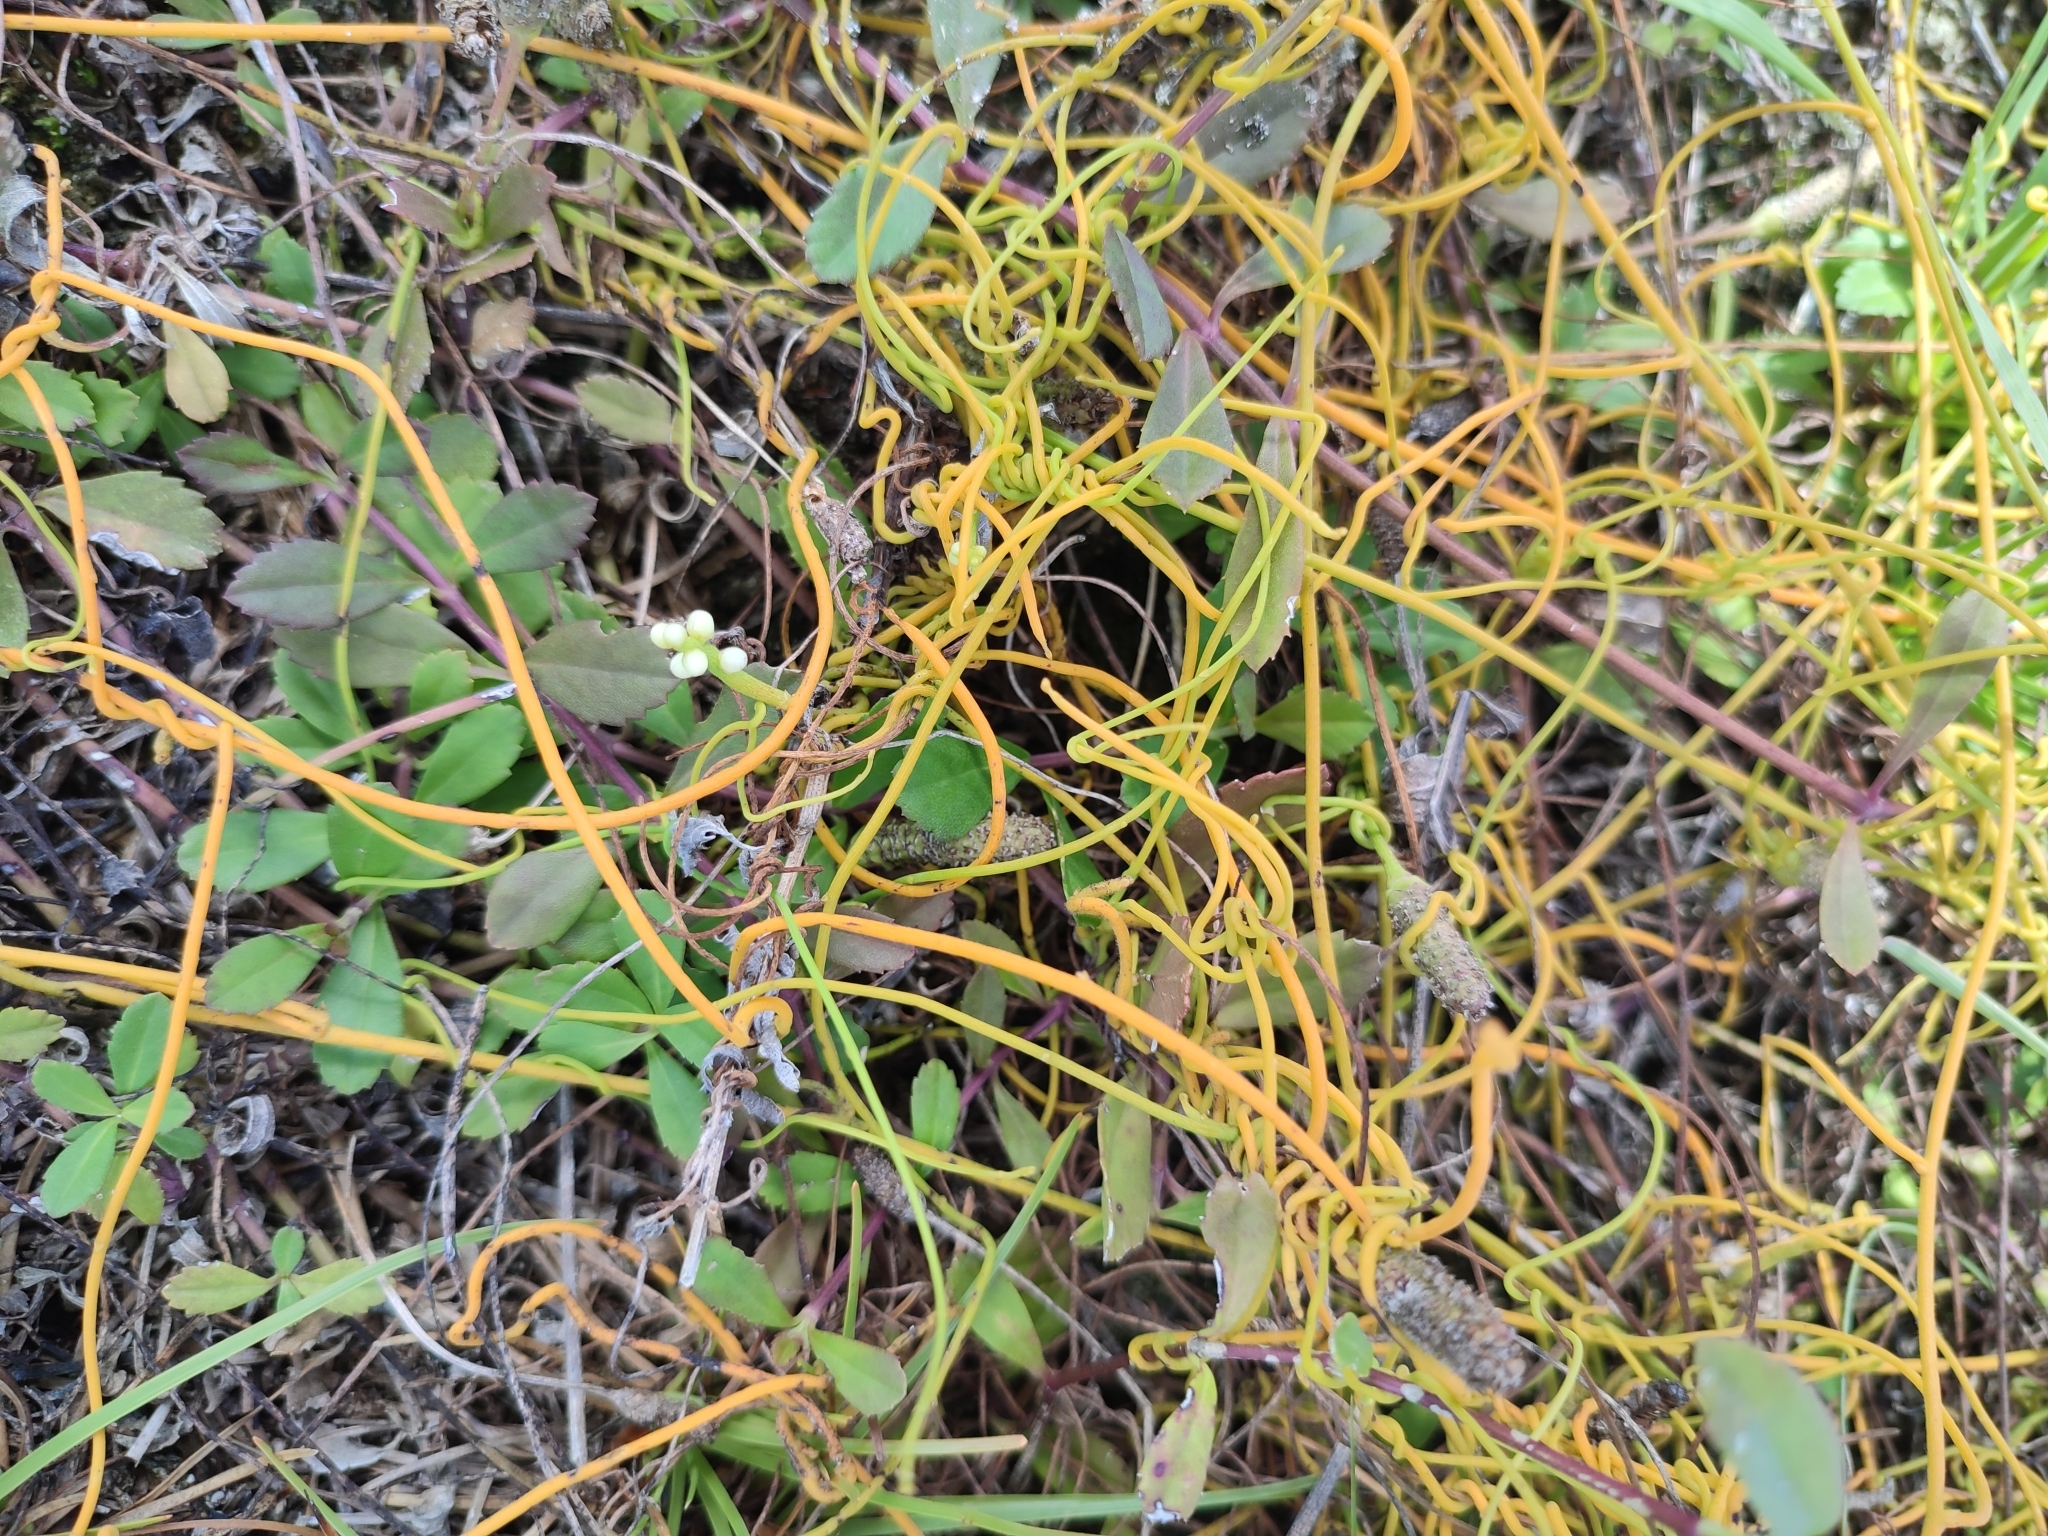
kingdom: Plantae
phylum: Tracheophyta
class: Magnoliopsida
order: Laurales
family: Lauraceae
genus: Cassytha
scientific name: Cassytha filiformis
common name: Dodder-laurel
